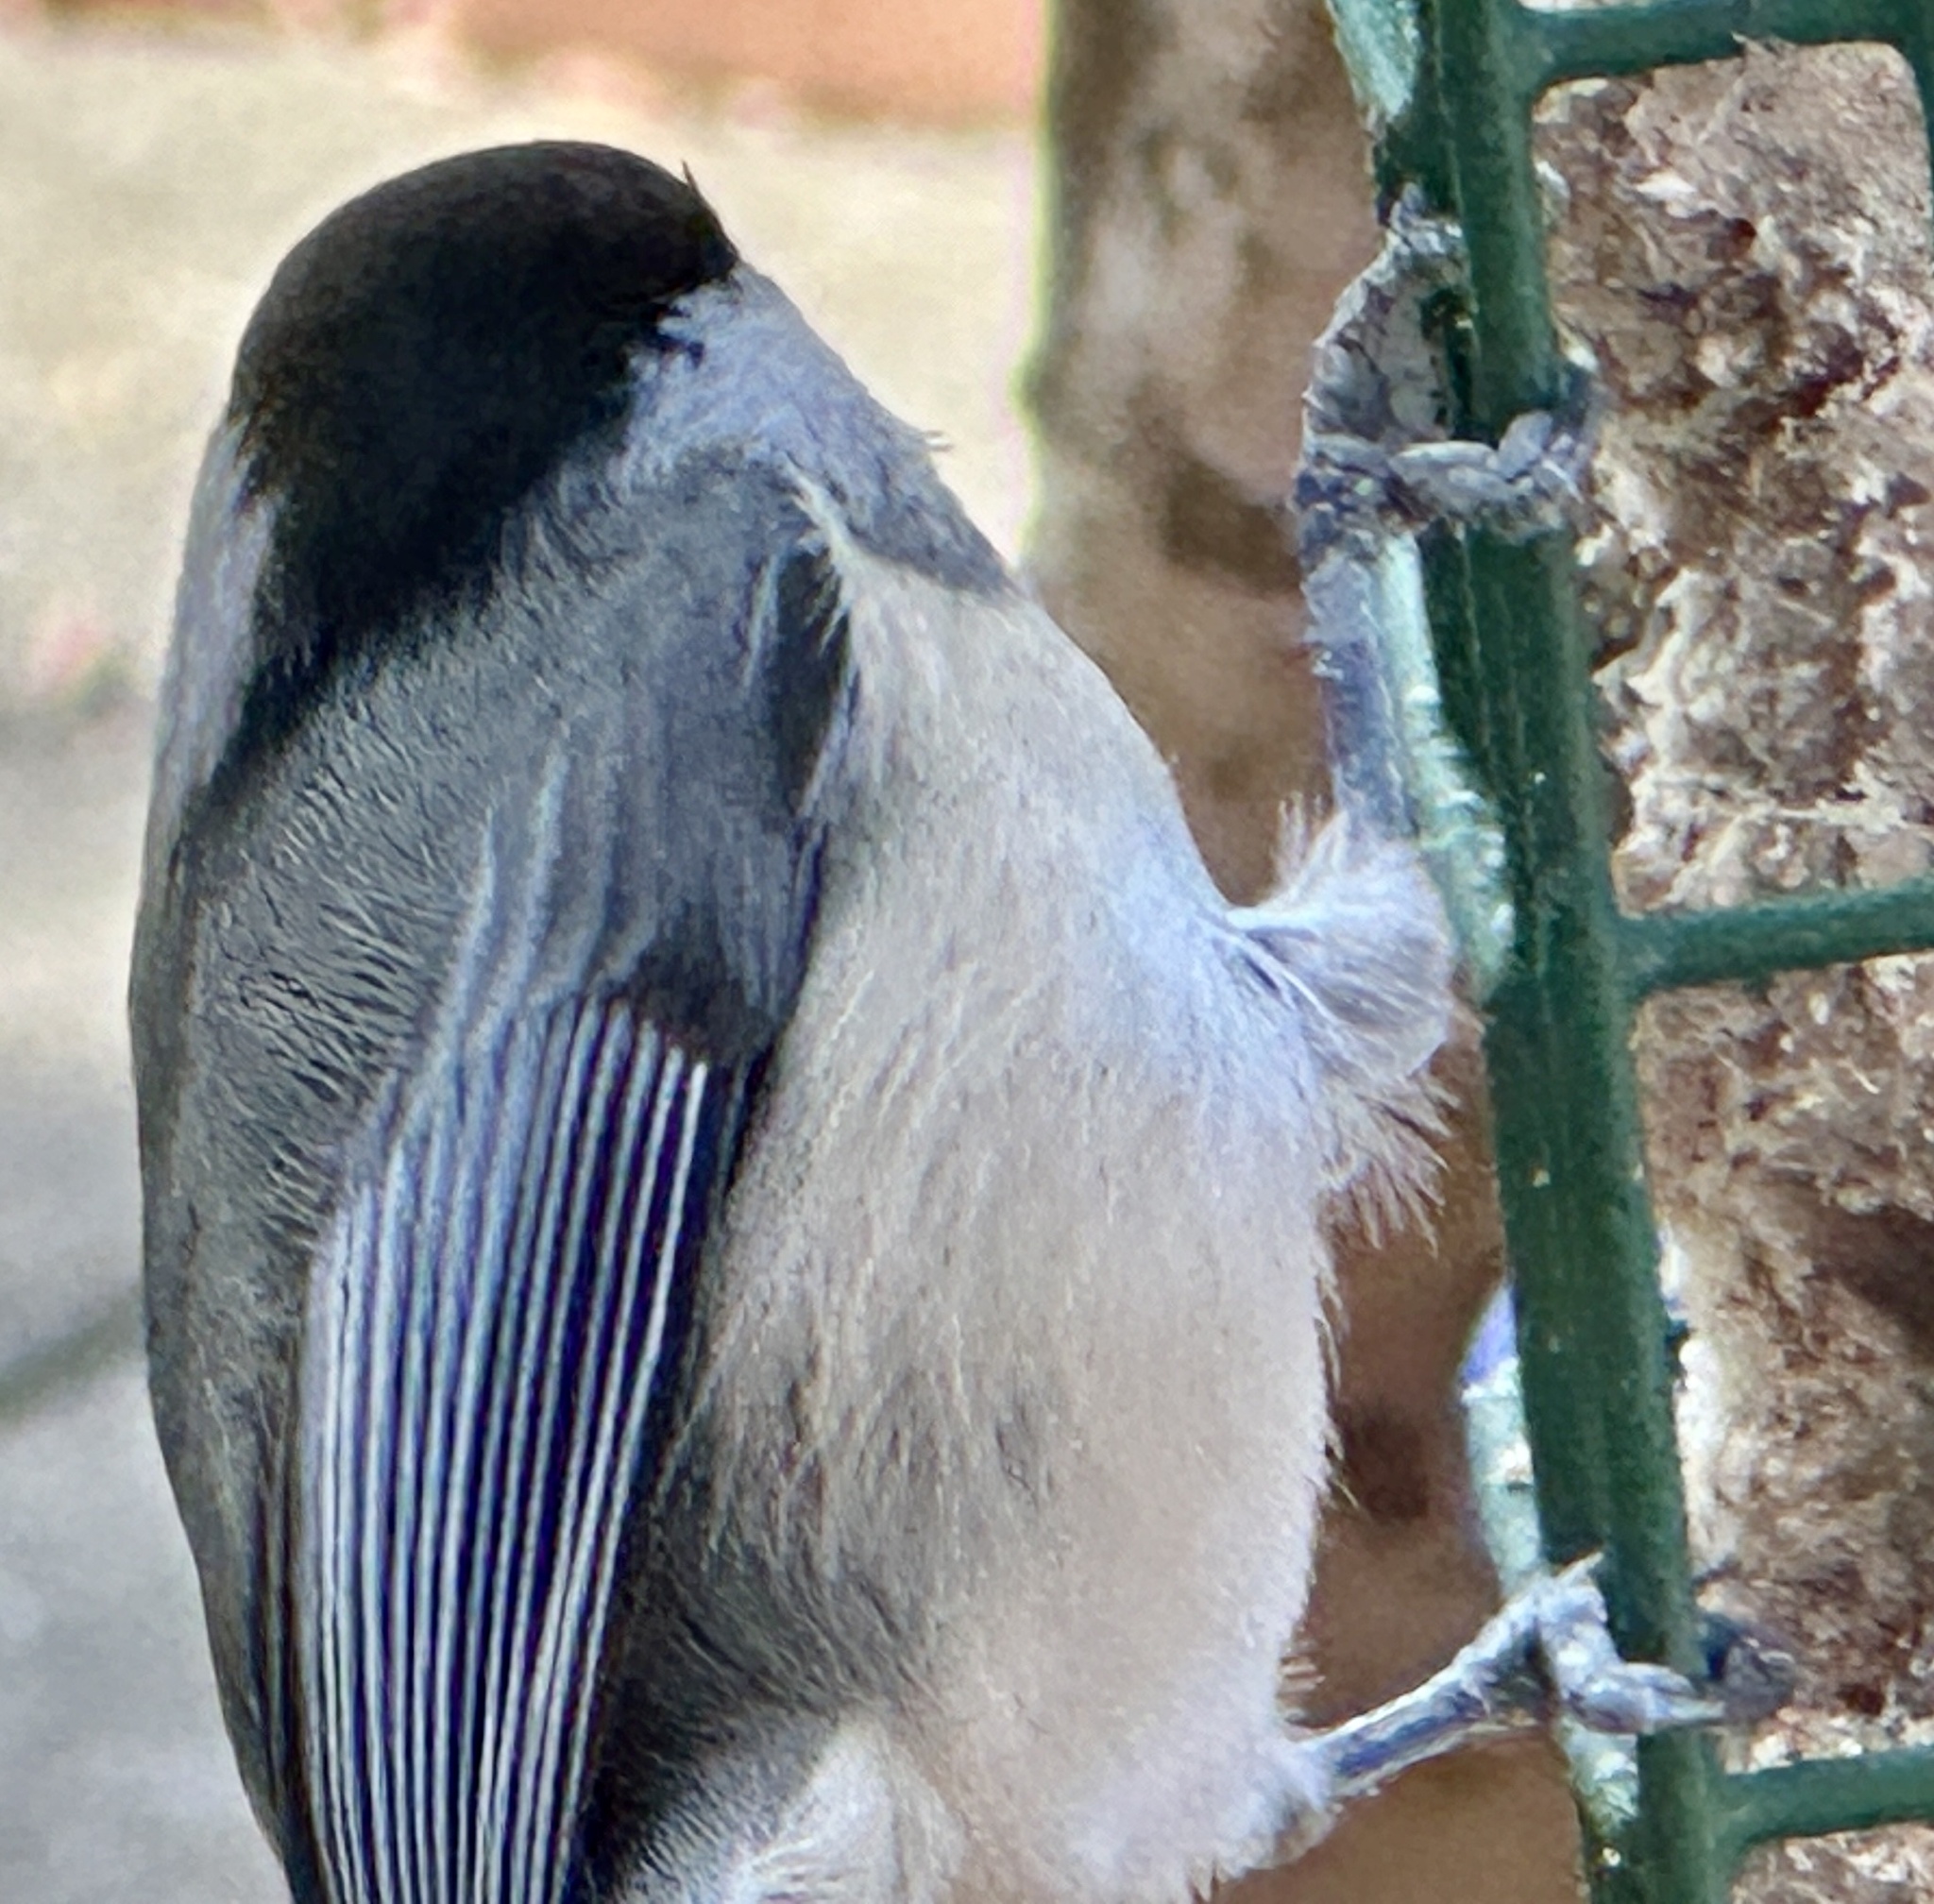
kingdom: Animalia
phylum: Chordata
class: Aves
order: Passeriformes
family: Paridae
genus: Poecile
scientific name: Poecile carolinensis
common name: Carolina chickadee
